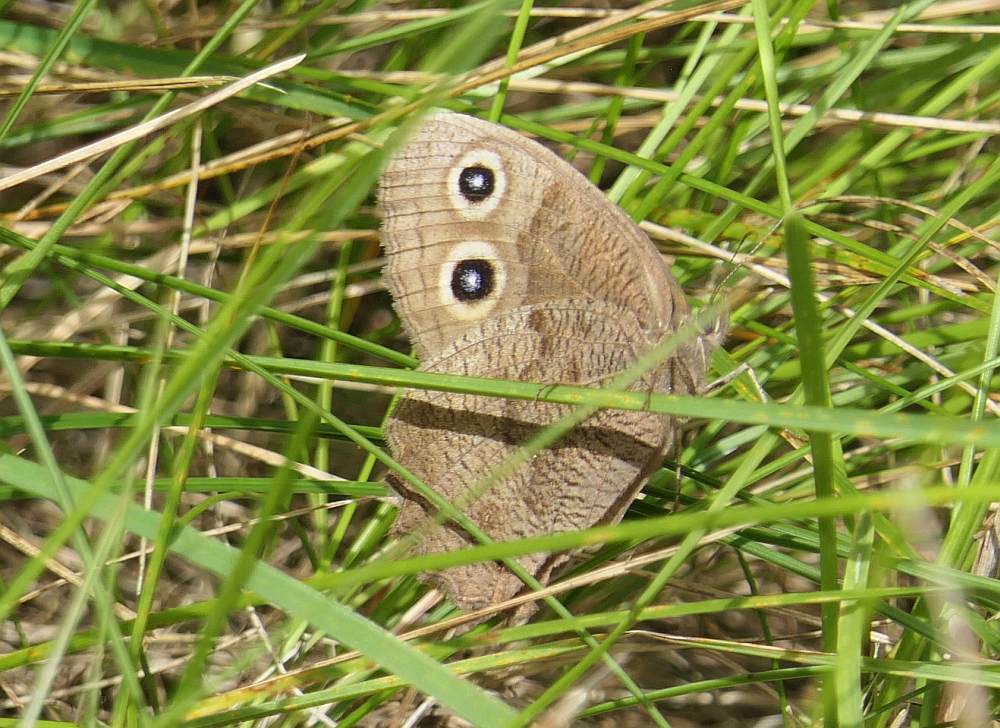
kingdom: Animalia
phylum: Arthropoda
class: Insecta
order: Lepidoptera
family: Nymphalidae
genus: Cercyonis
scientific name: Cercyonis pegala
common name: Common wood-nymph
